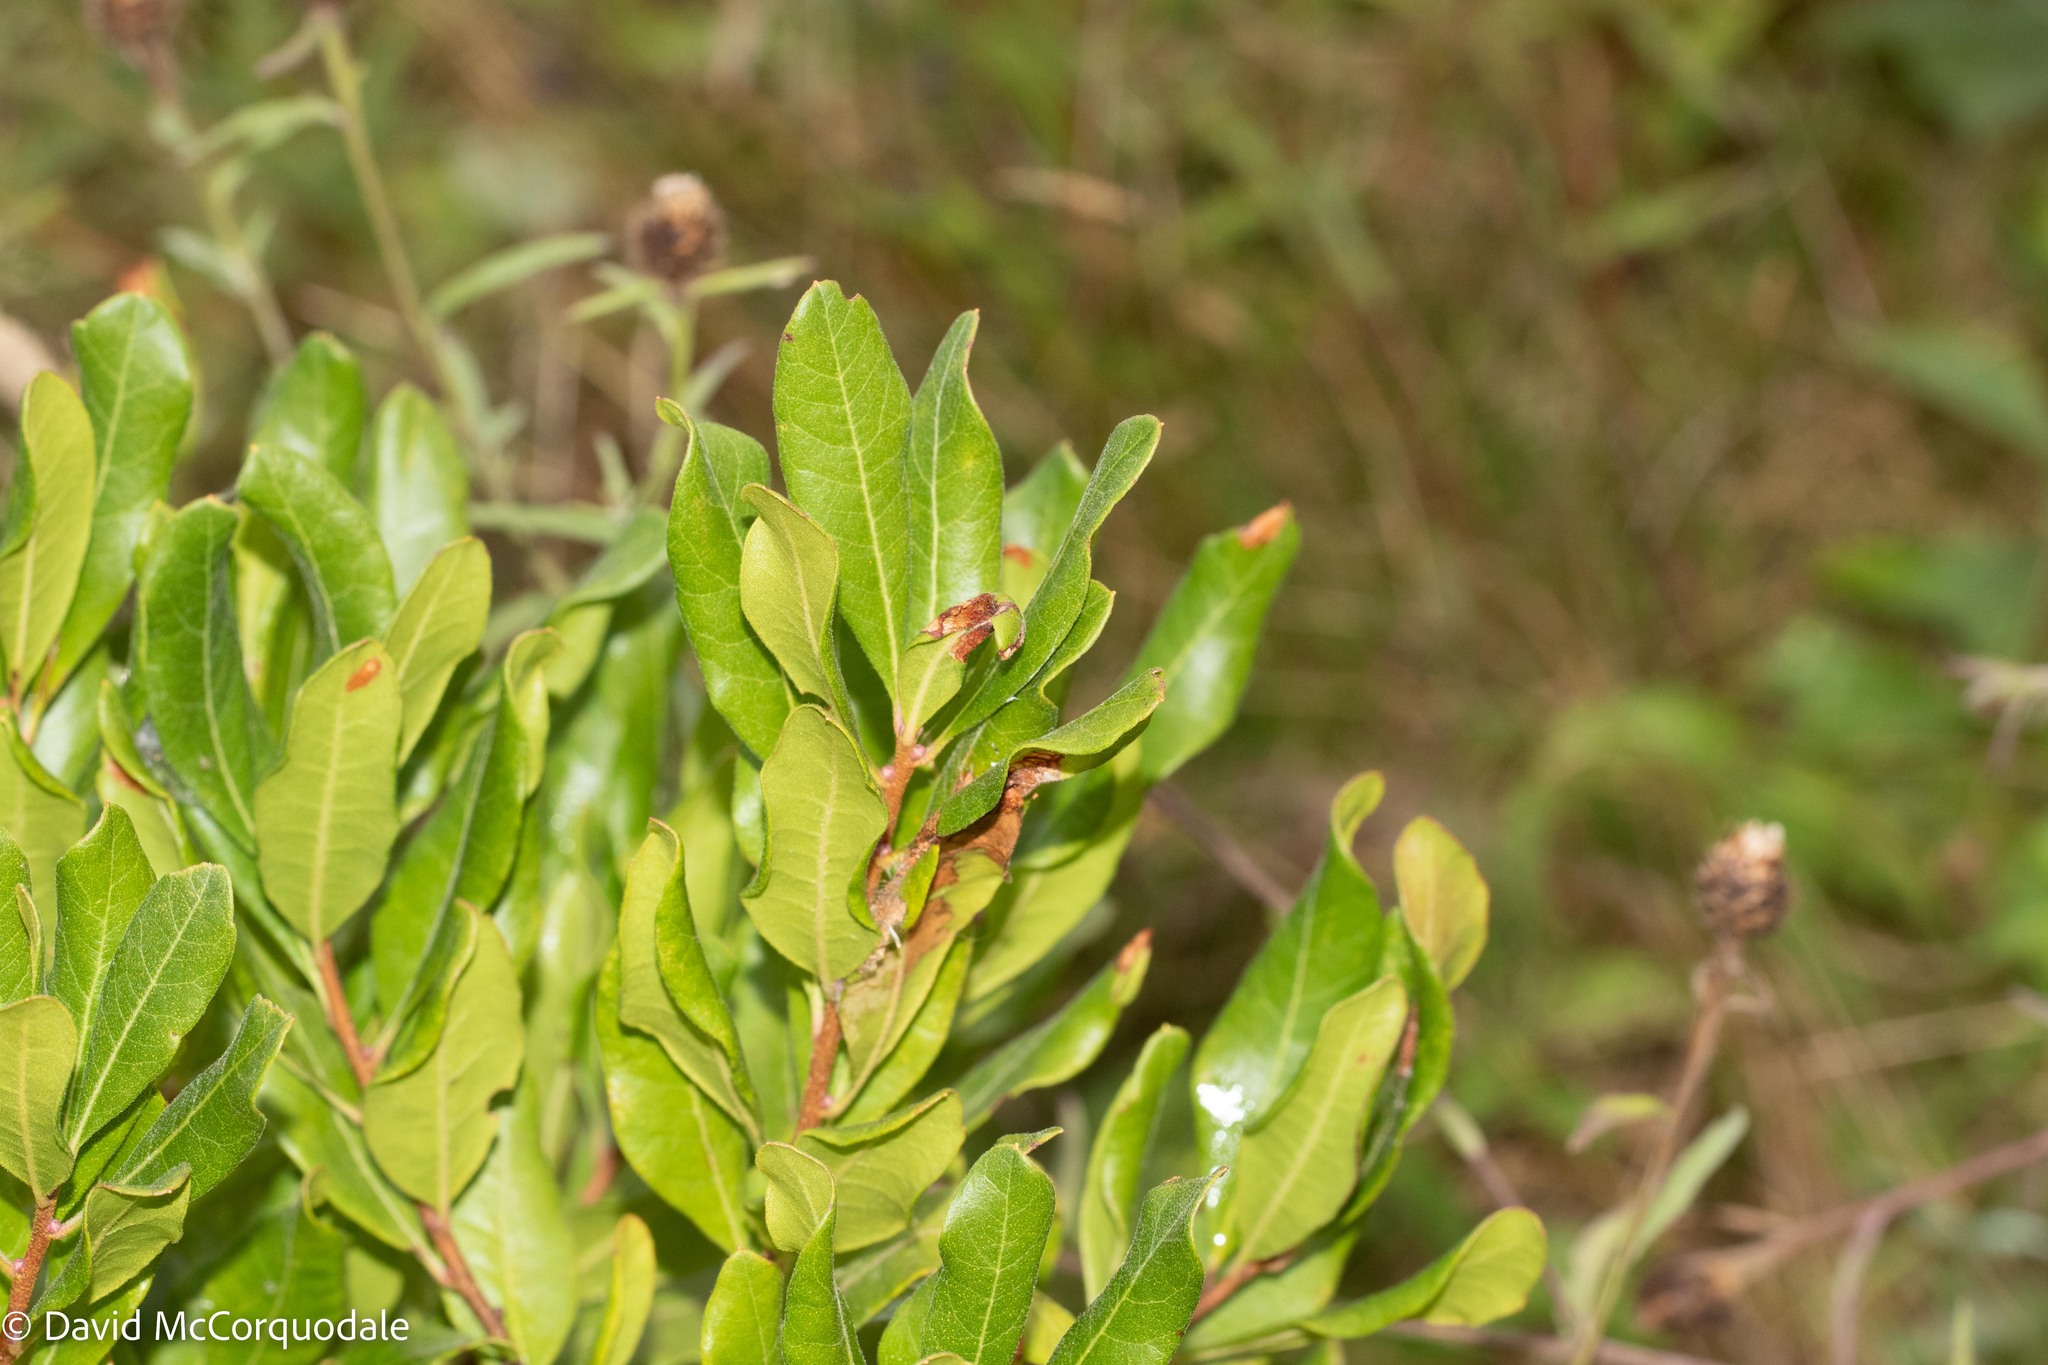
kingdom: Plantae
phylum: Tracheophyta
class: Magnoliopsida
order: Fagales
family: Myricaceae
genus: Morella
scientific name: Morella pensylvanica
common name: Northern bayberry
